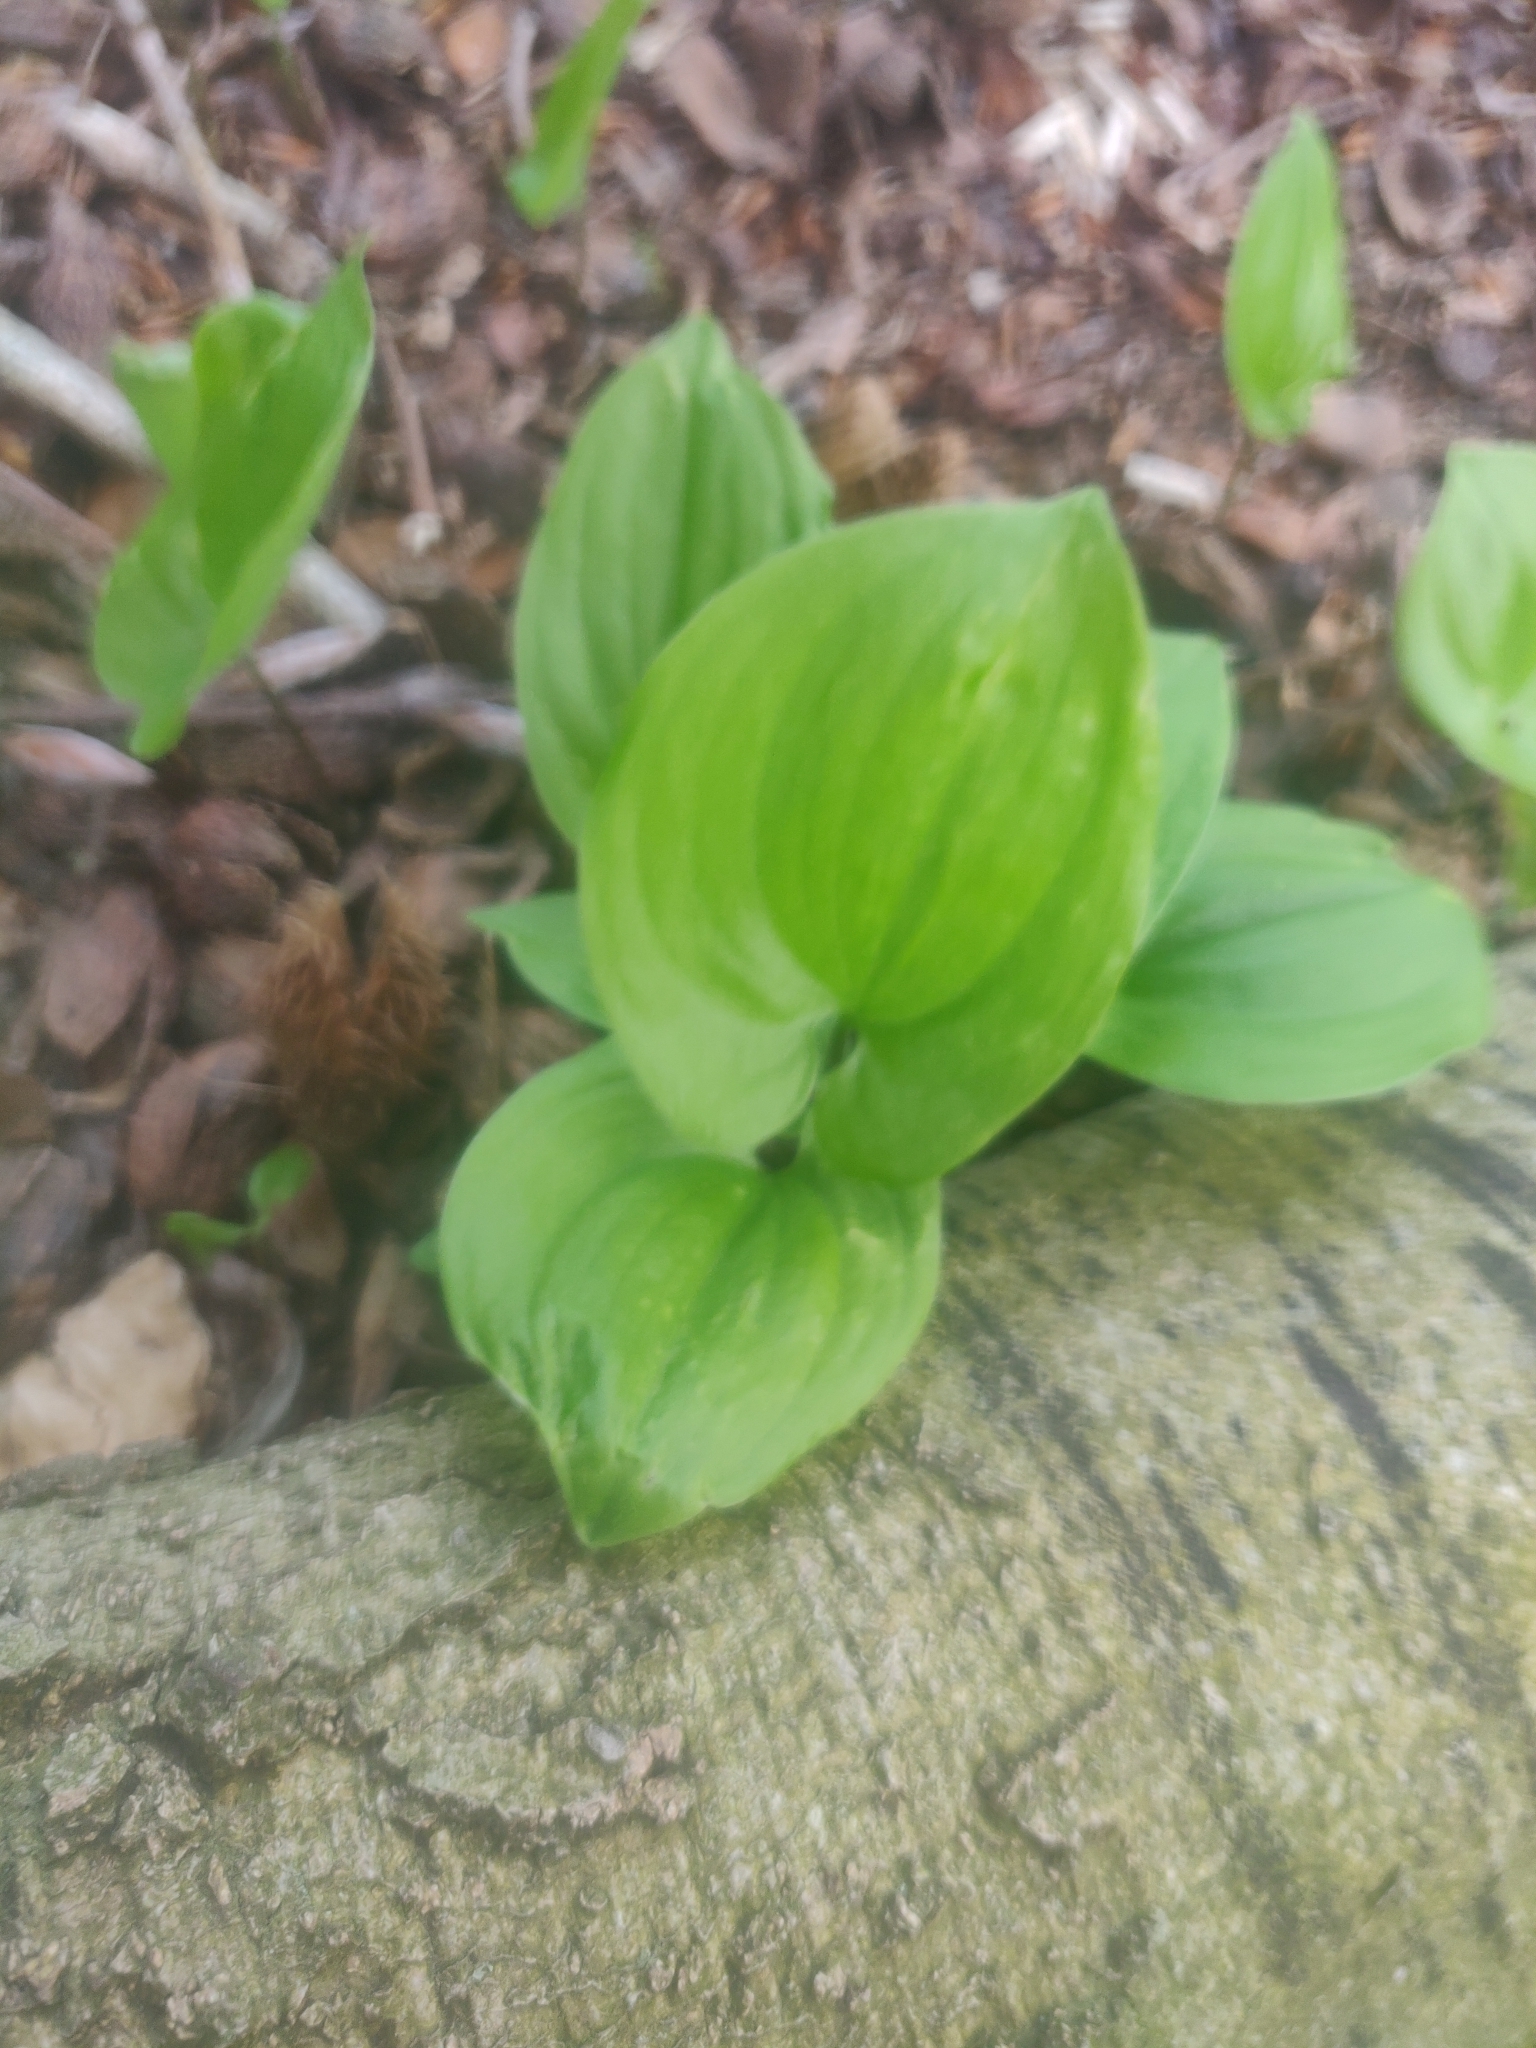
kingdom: Plantae
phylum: Tracheophyta
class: Liliopsida
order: Asparagales
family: Asparagaceae
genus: Maianthemum
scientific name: Maianthemum bifolium
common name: May lily
